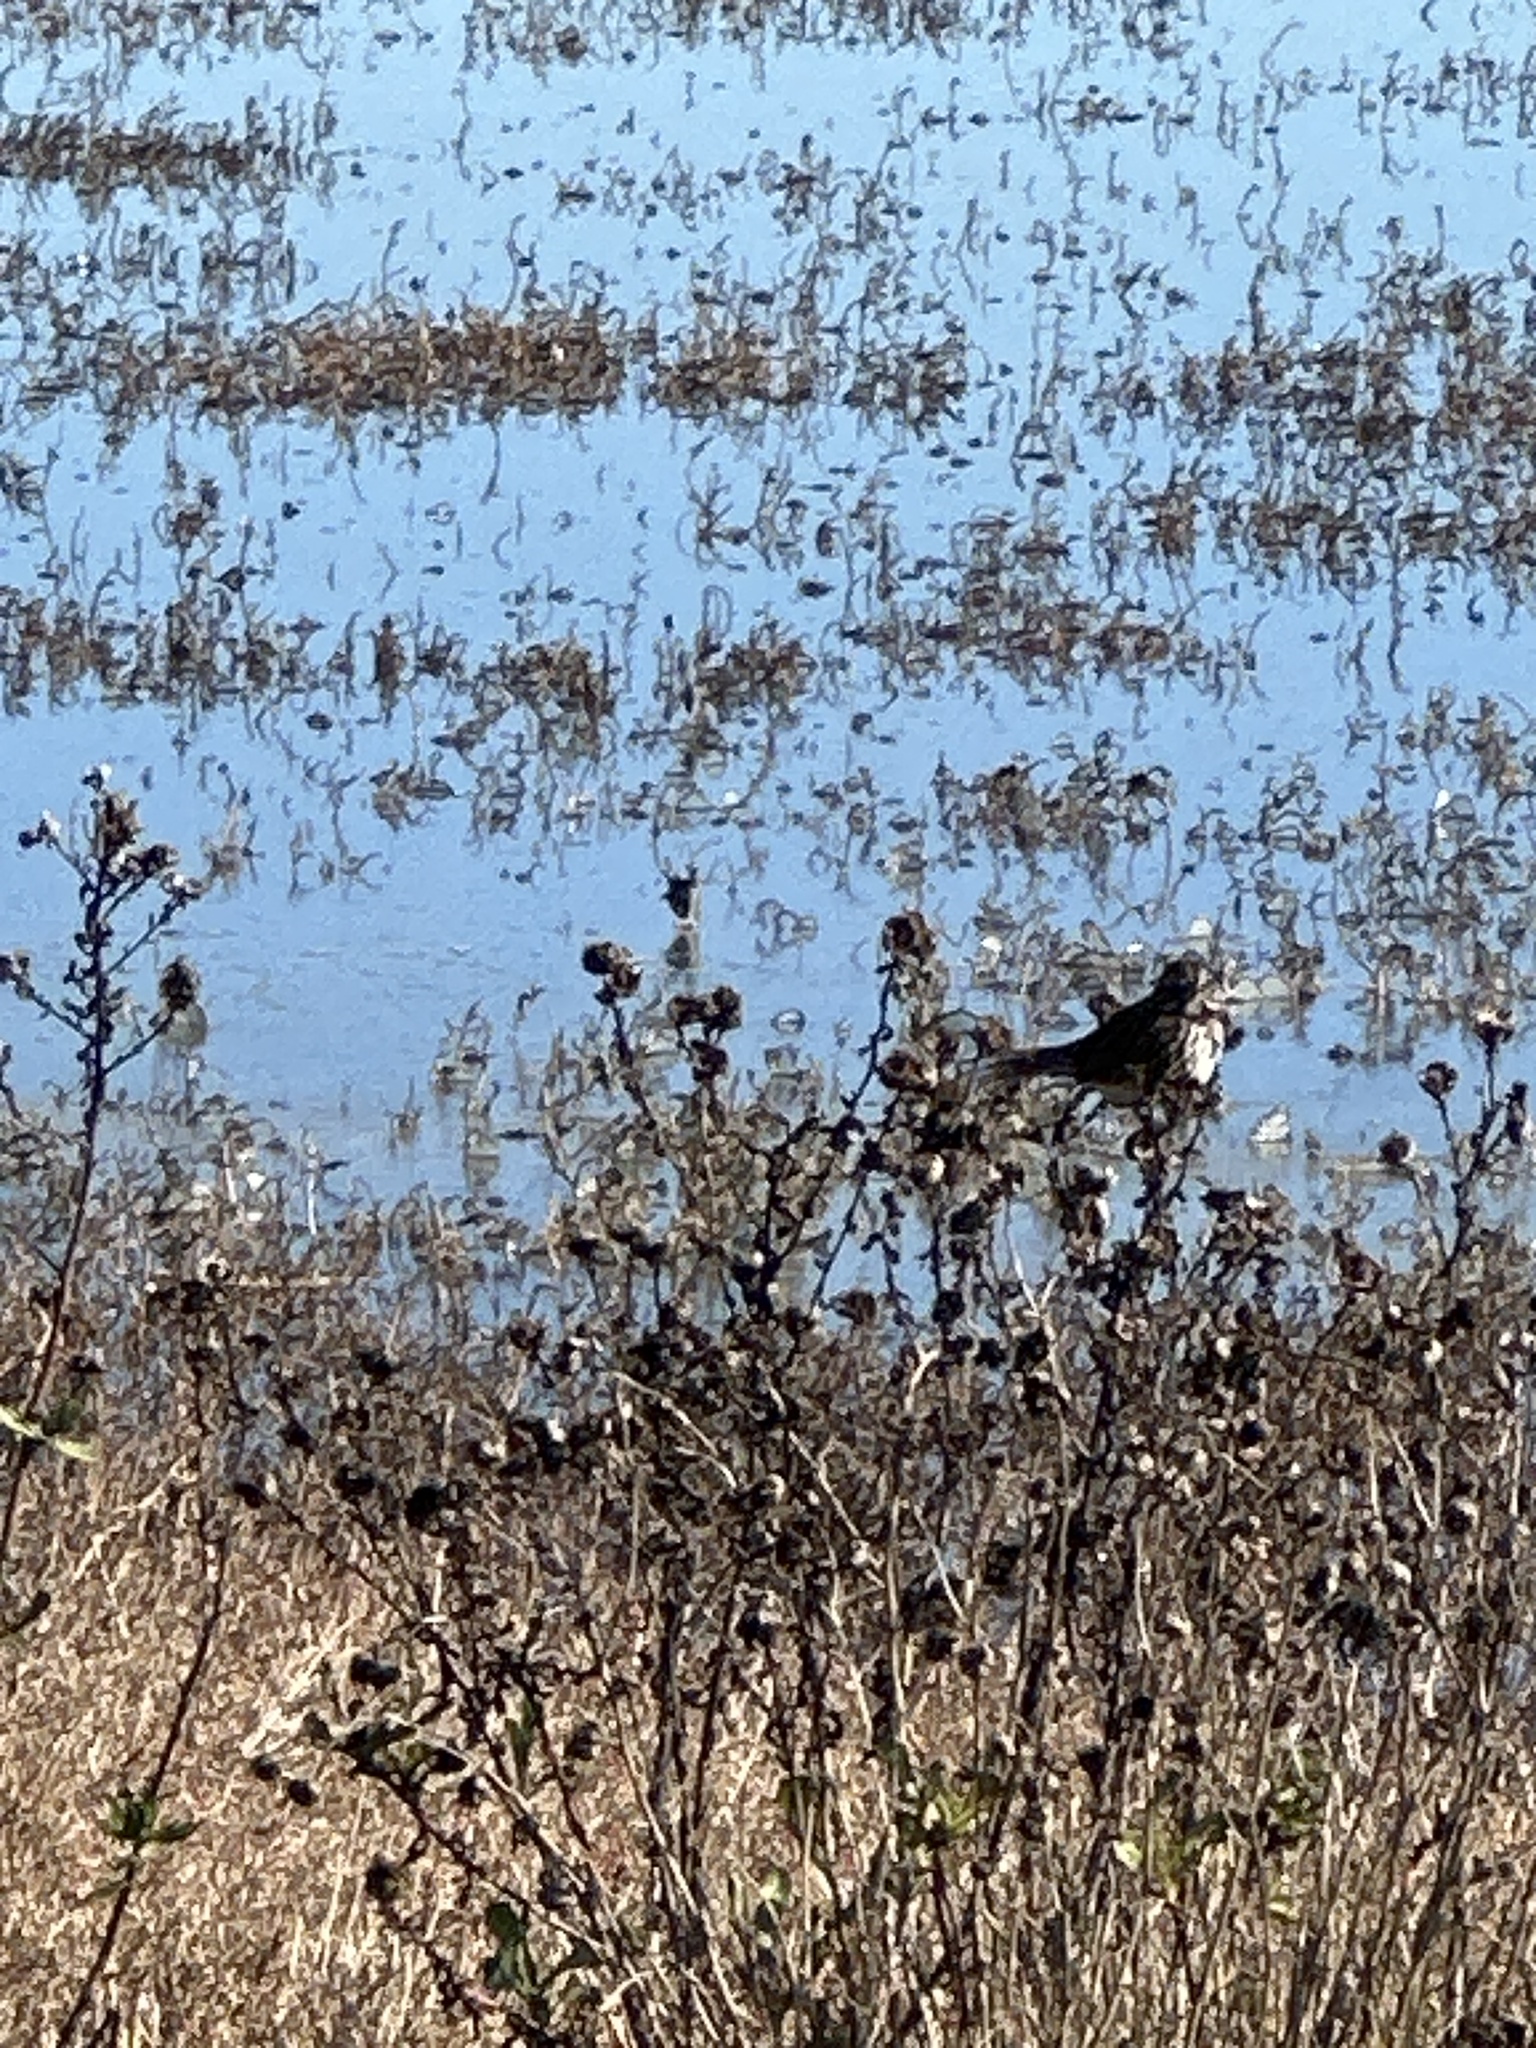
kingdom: Animalia
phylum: Chordata
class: Aves
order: Passeriformes
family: Passerellidae
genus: Passerculus
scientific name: Passerculus sandwichensis
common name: Savannah sparrow
